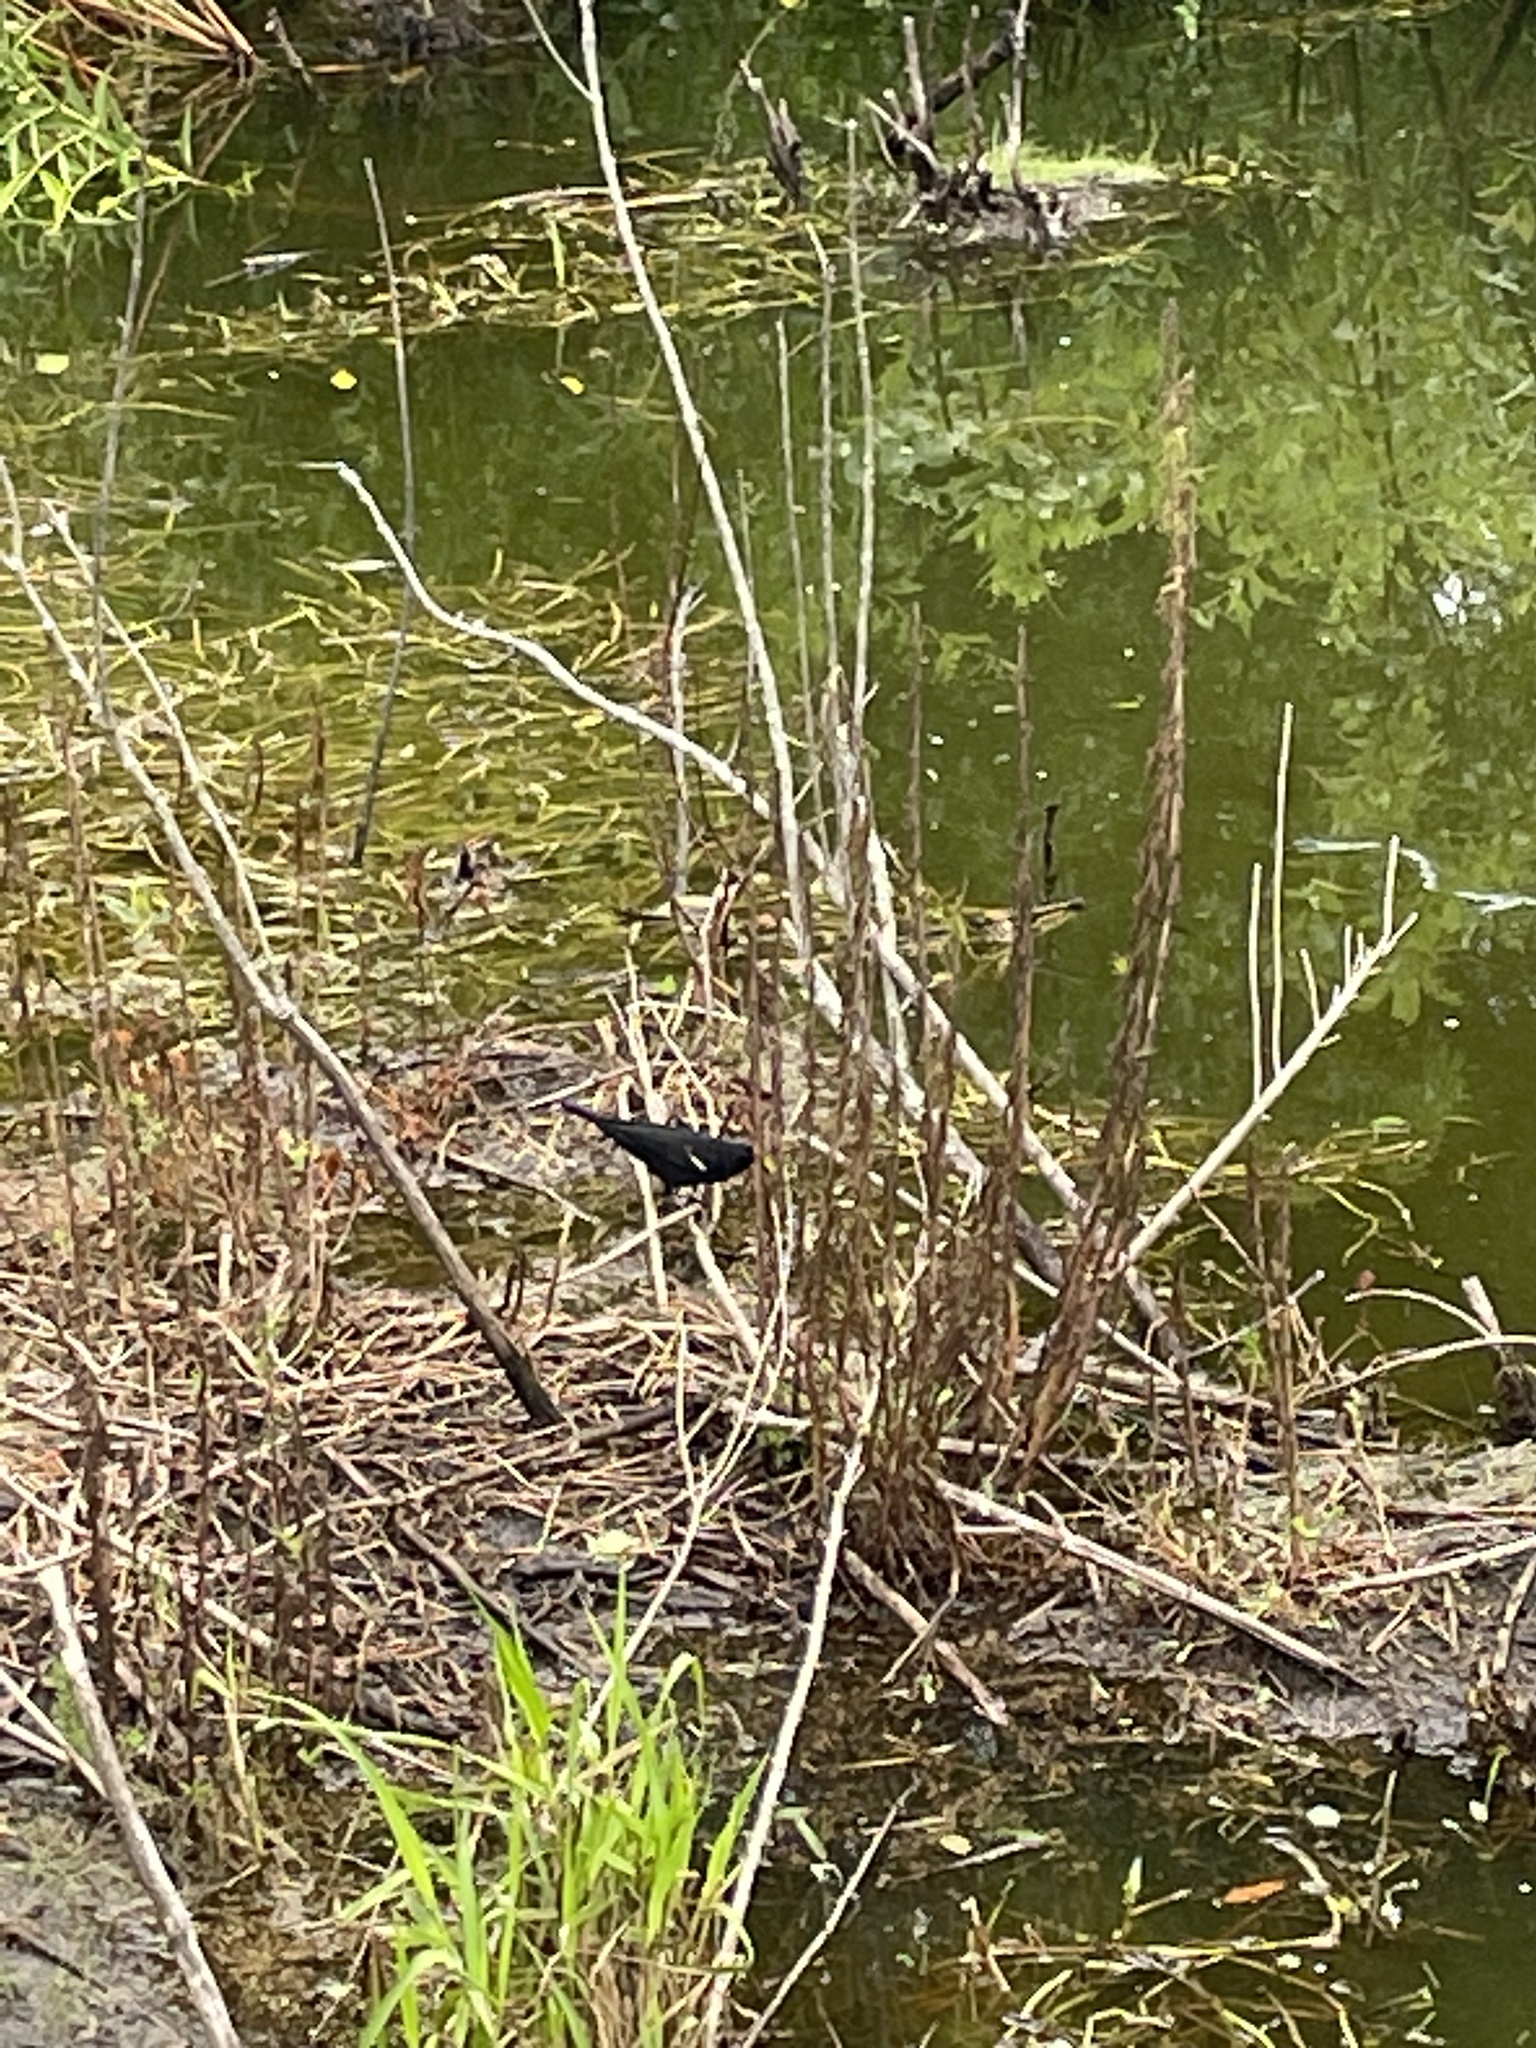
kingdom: Animalia
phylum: Chordata
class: Aves
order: Passeriformes
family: Icteridae
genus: Agelaius
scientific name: Agelaius phoeniceus
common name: Red-winged blackbird
